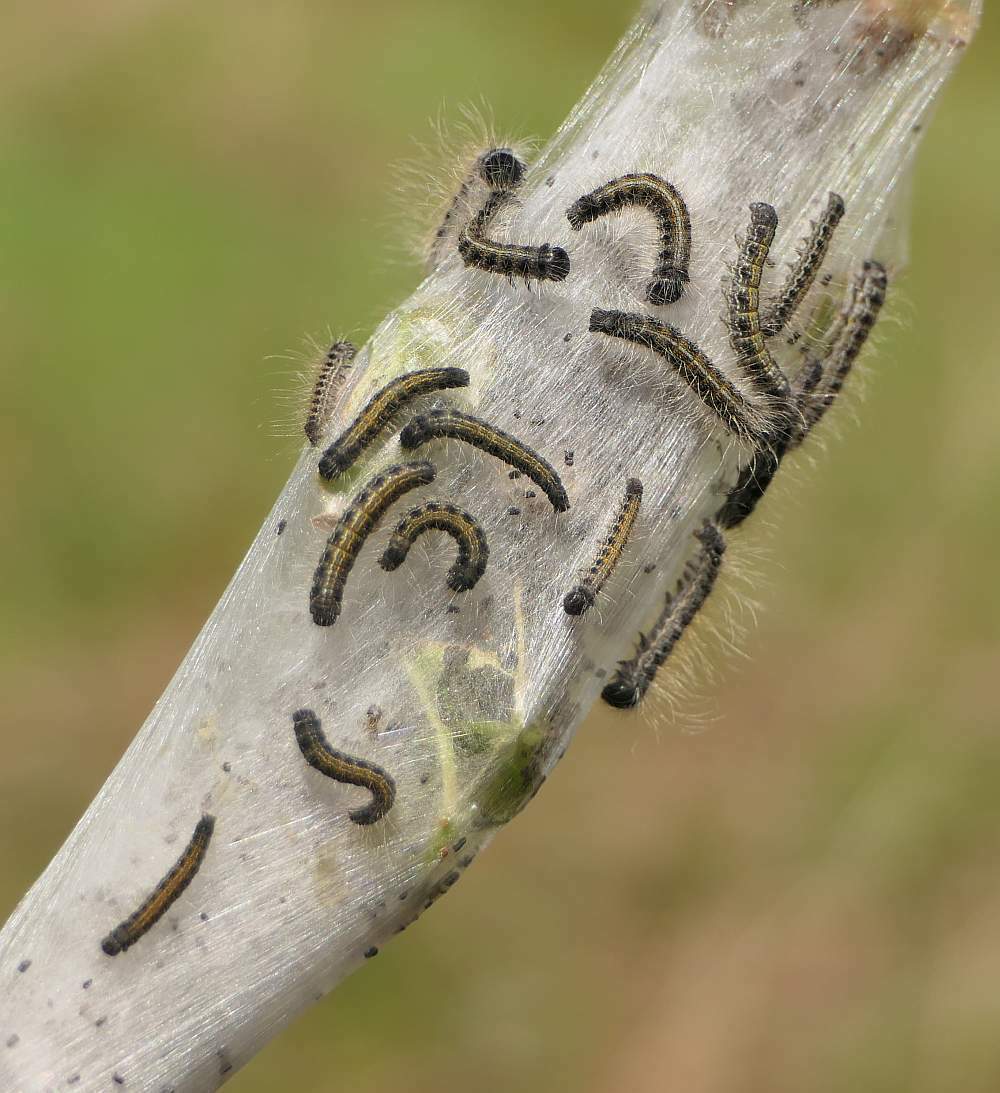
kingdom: Animalia
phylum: Arthropoda
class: Insecta
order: Lepidoptera
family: Lasiocampidae
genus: Malacosoma
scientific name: Malacosoma americana
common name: Eastern tent caterpillar moth
